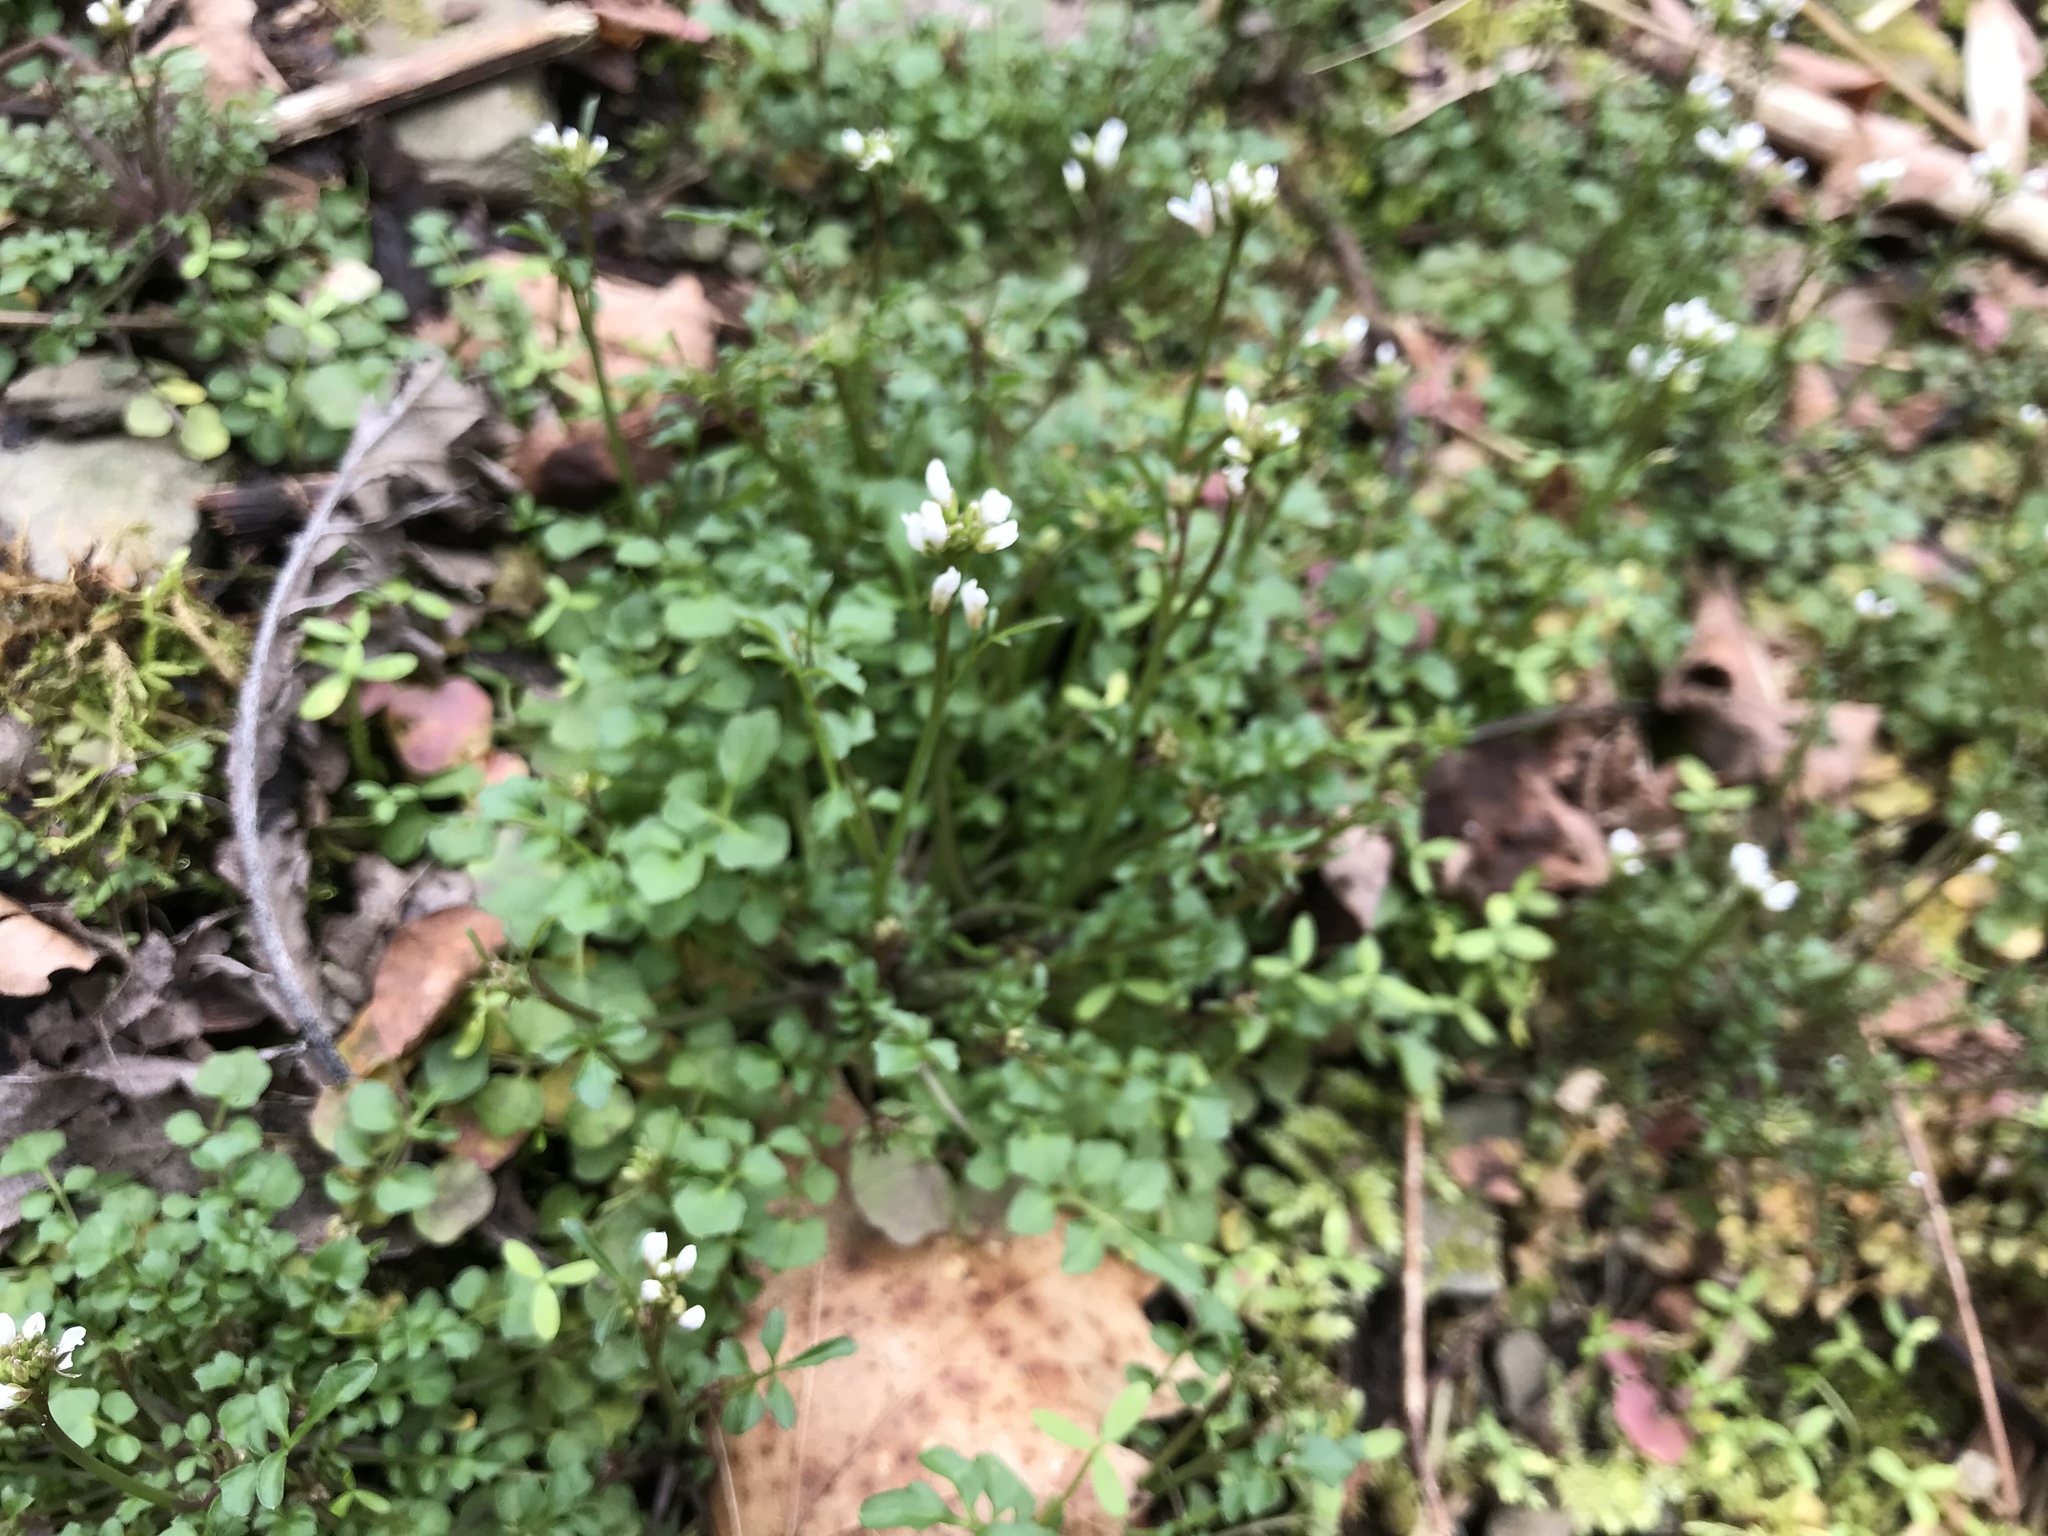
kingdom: Plantae
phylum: Tracheophyta
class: Magnoliopsida
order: Brassicales
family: Brassicaceae
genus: Cardamine
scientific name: Cardamine hirsuta
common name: Hairy bittercress
